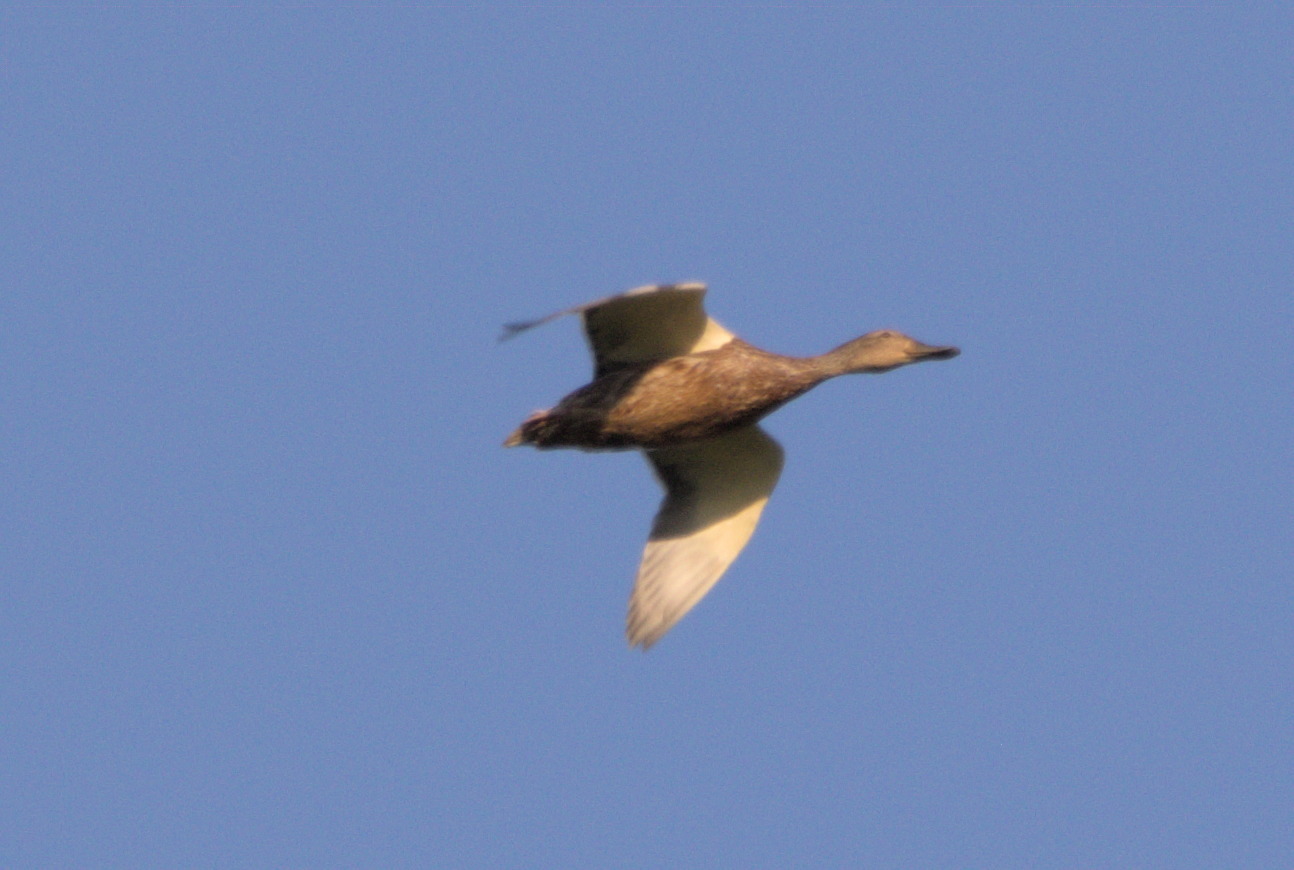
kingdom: Animalia
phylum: Chordata
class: Aves
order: Anseriformes
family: Anatidae
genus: Anas
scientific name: Anas platyrhynchos
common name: Mallard
